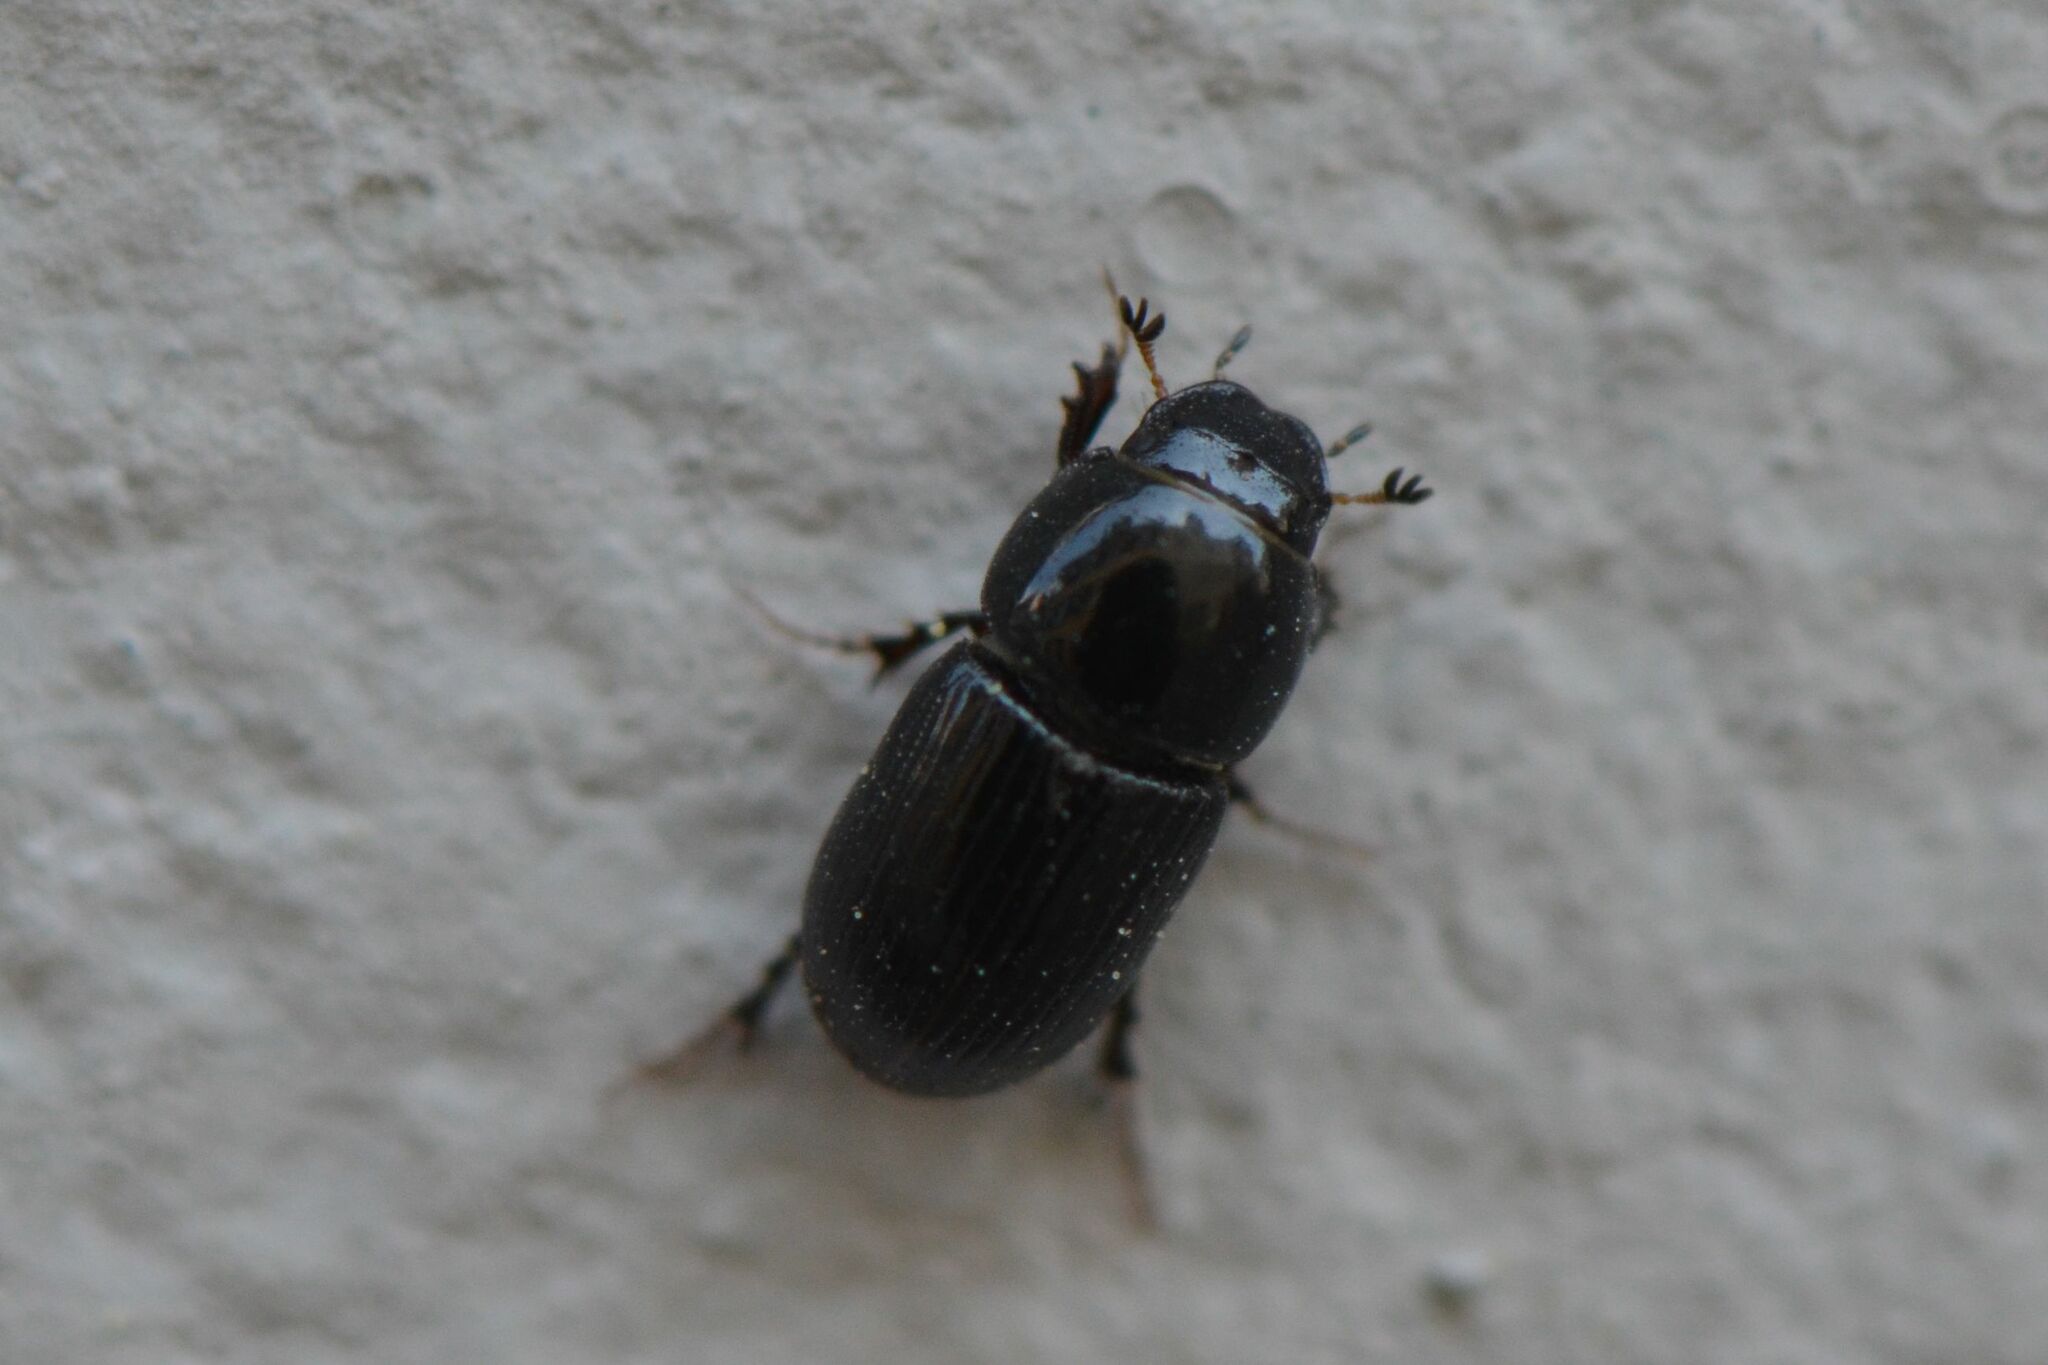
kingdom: Animalia
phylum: Arthropoda
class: Insecta
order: Coleoptera
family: Scarabaeidae
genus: Calamosternus
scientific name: Calamosternus granarius
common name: Granular small dung beetle
